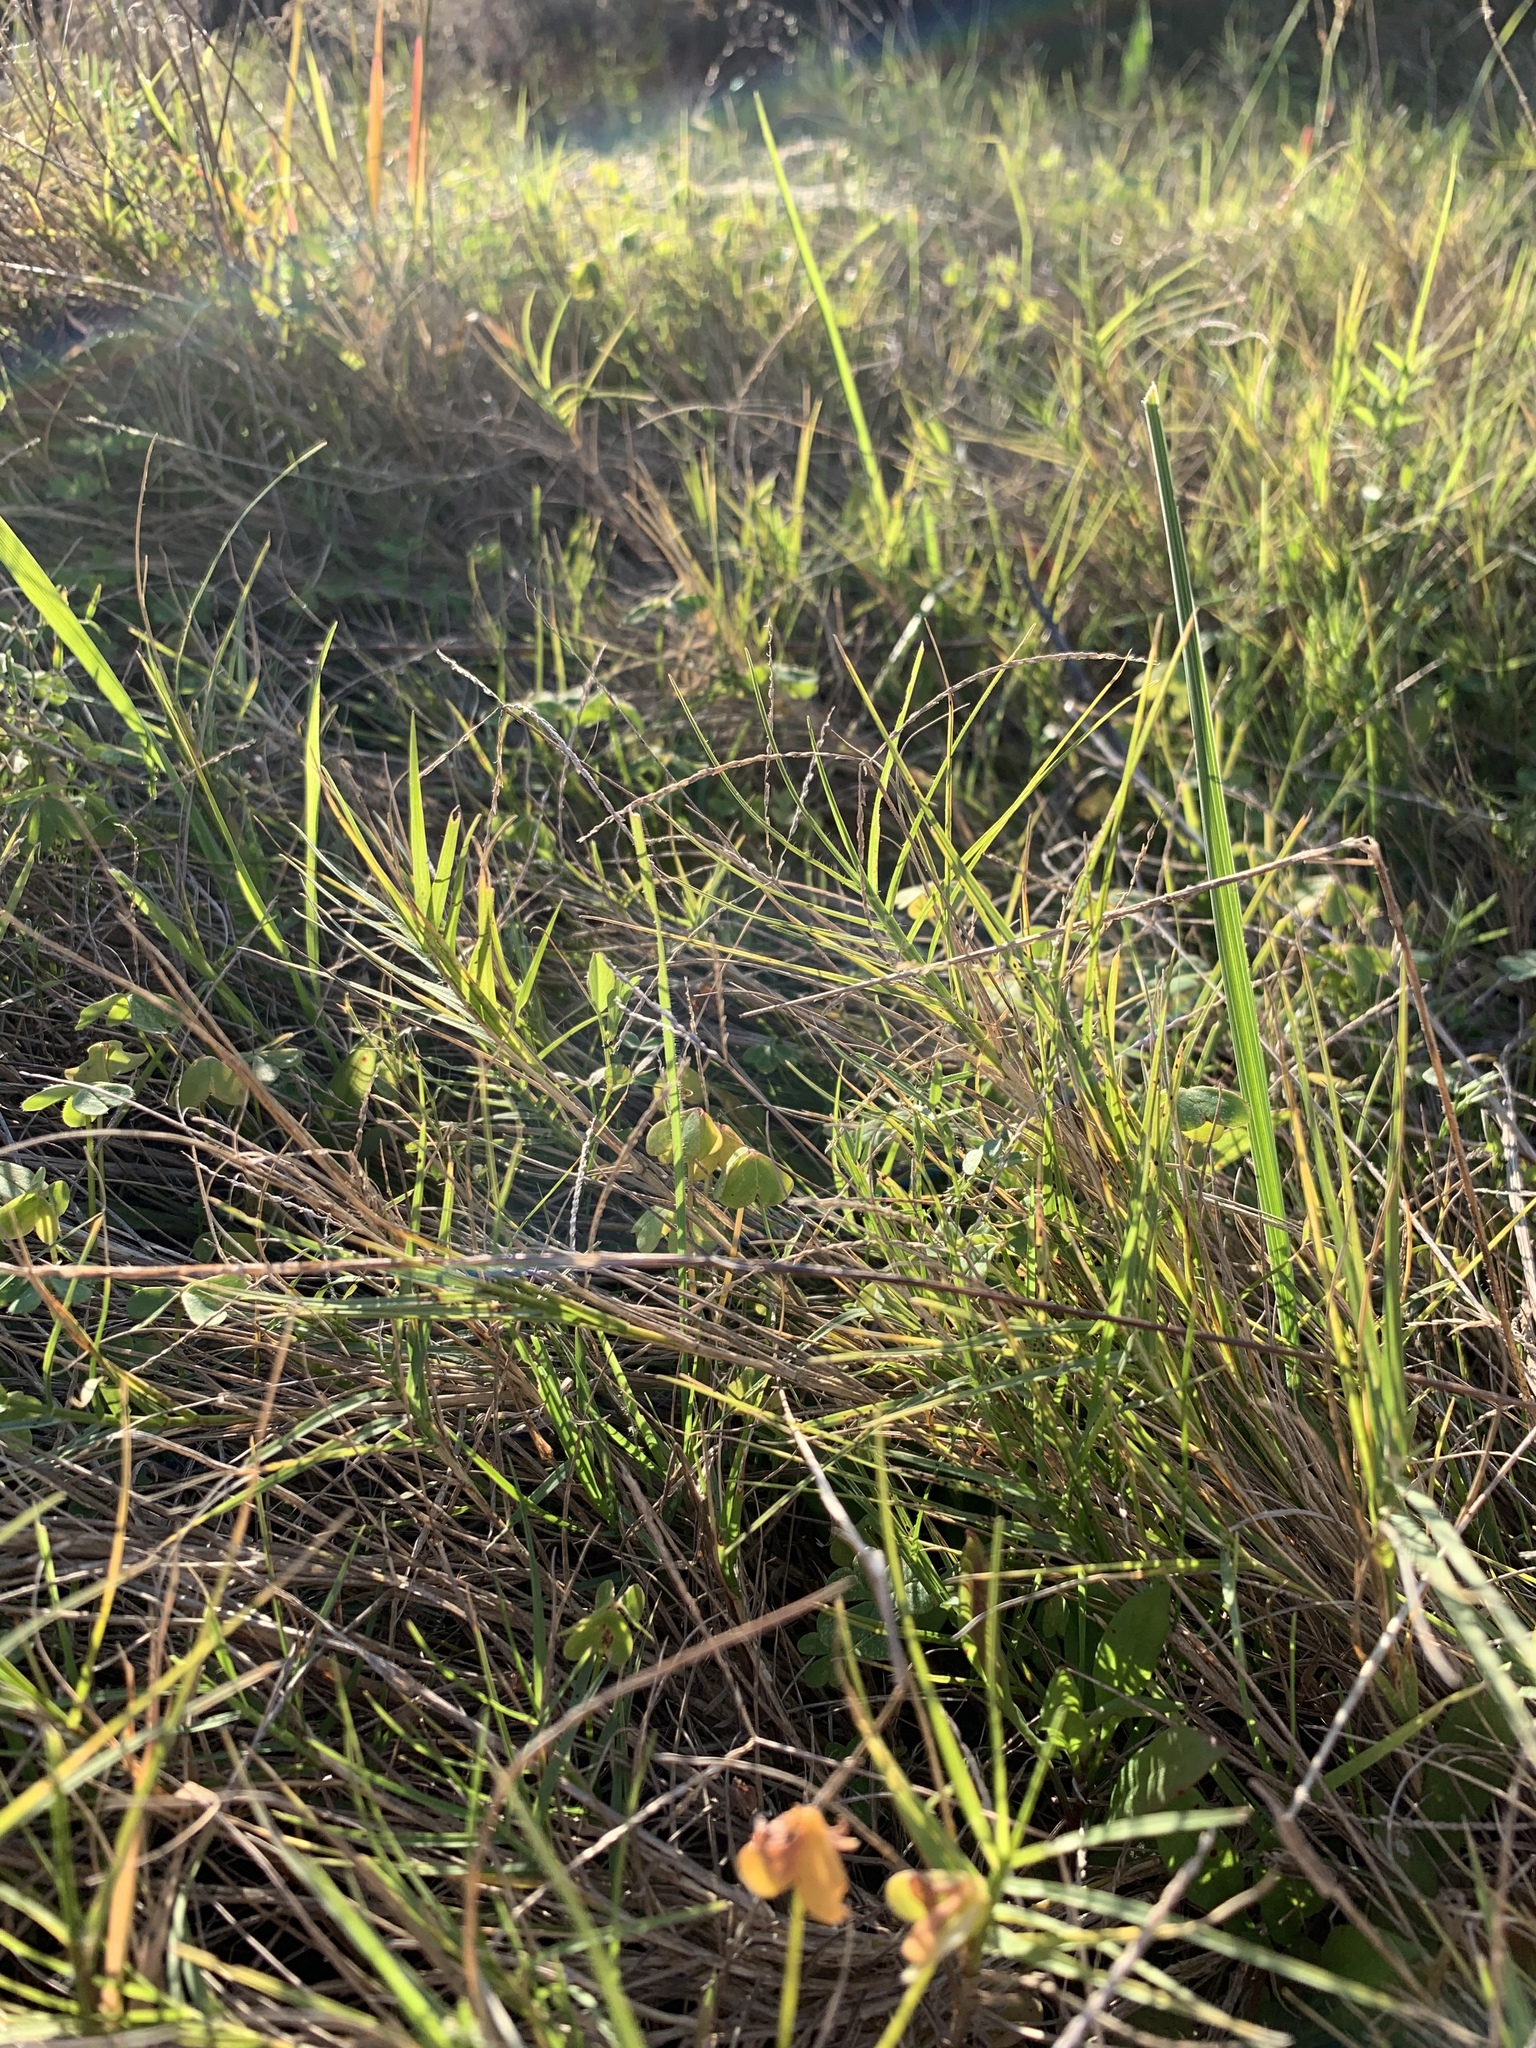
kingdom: Plantae
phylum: Tracheophyta
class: Liliopsida
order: Poales
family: Poaceae
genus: Cynodon
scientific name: Cynodon dactylon
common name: Bermuda grass
